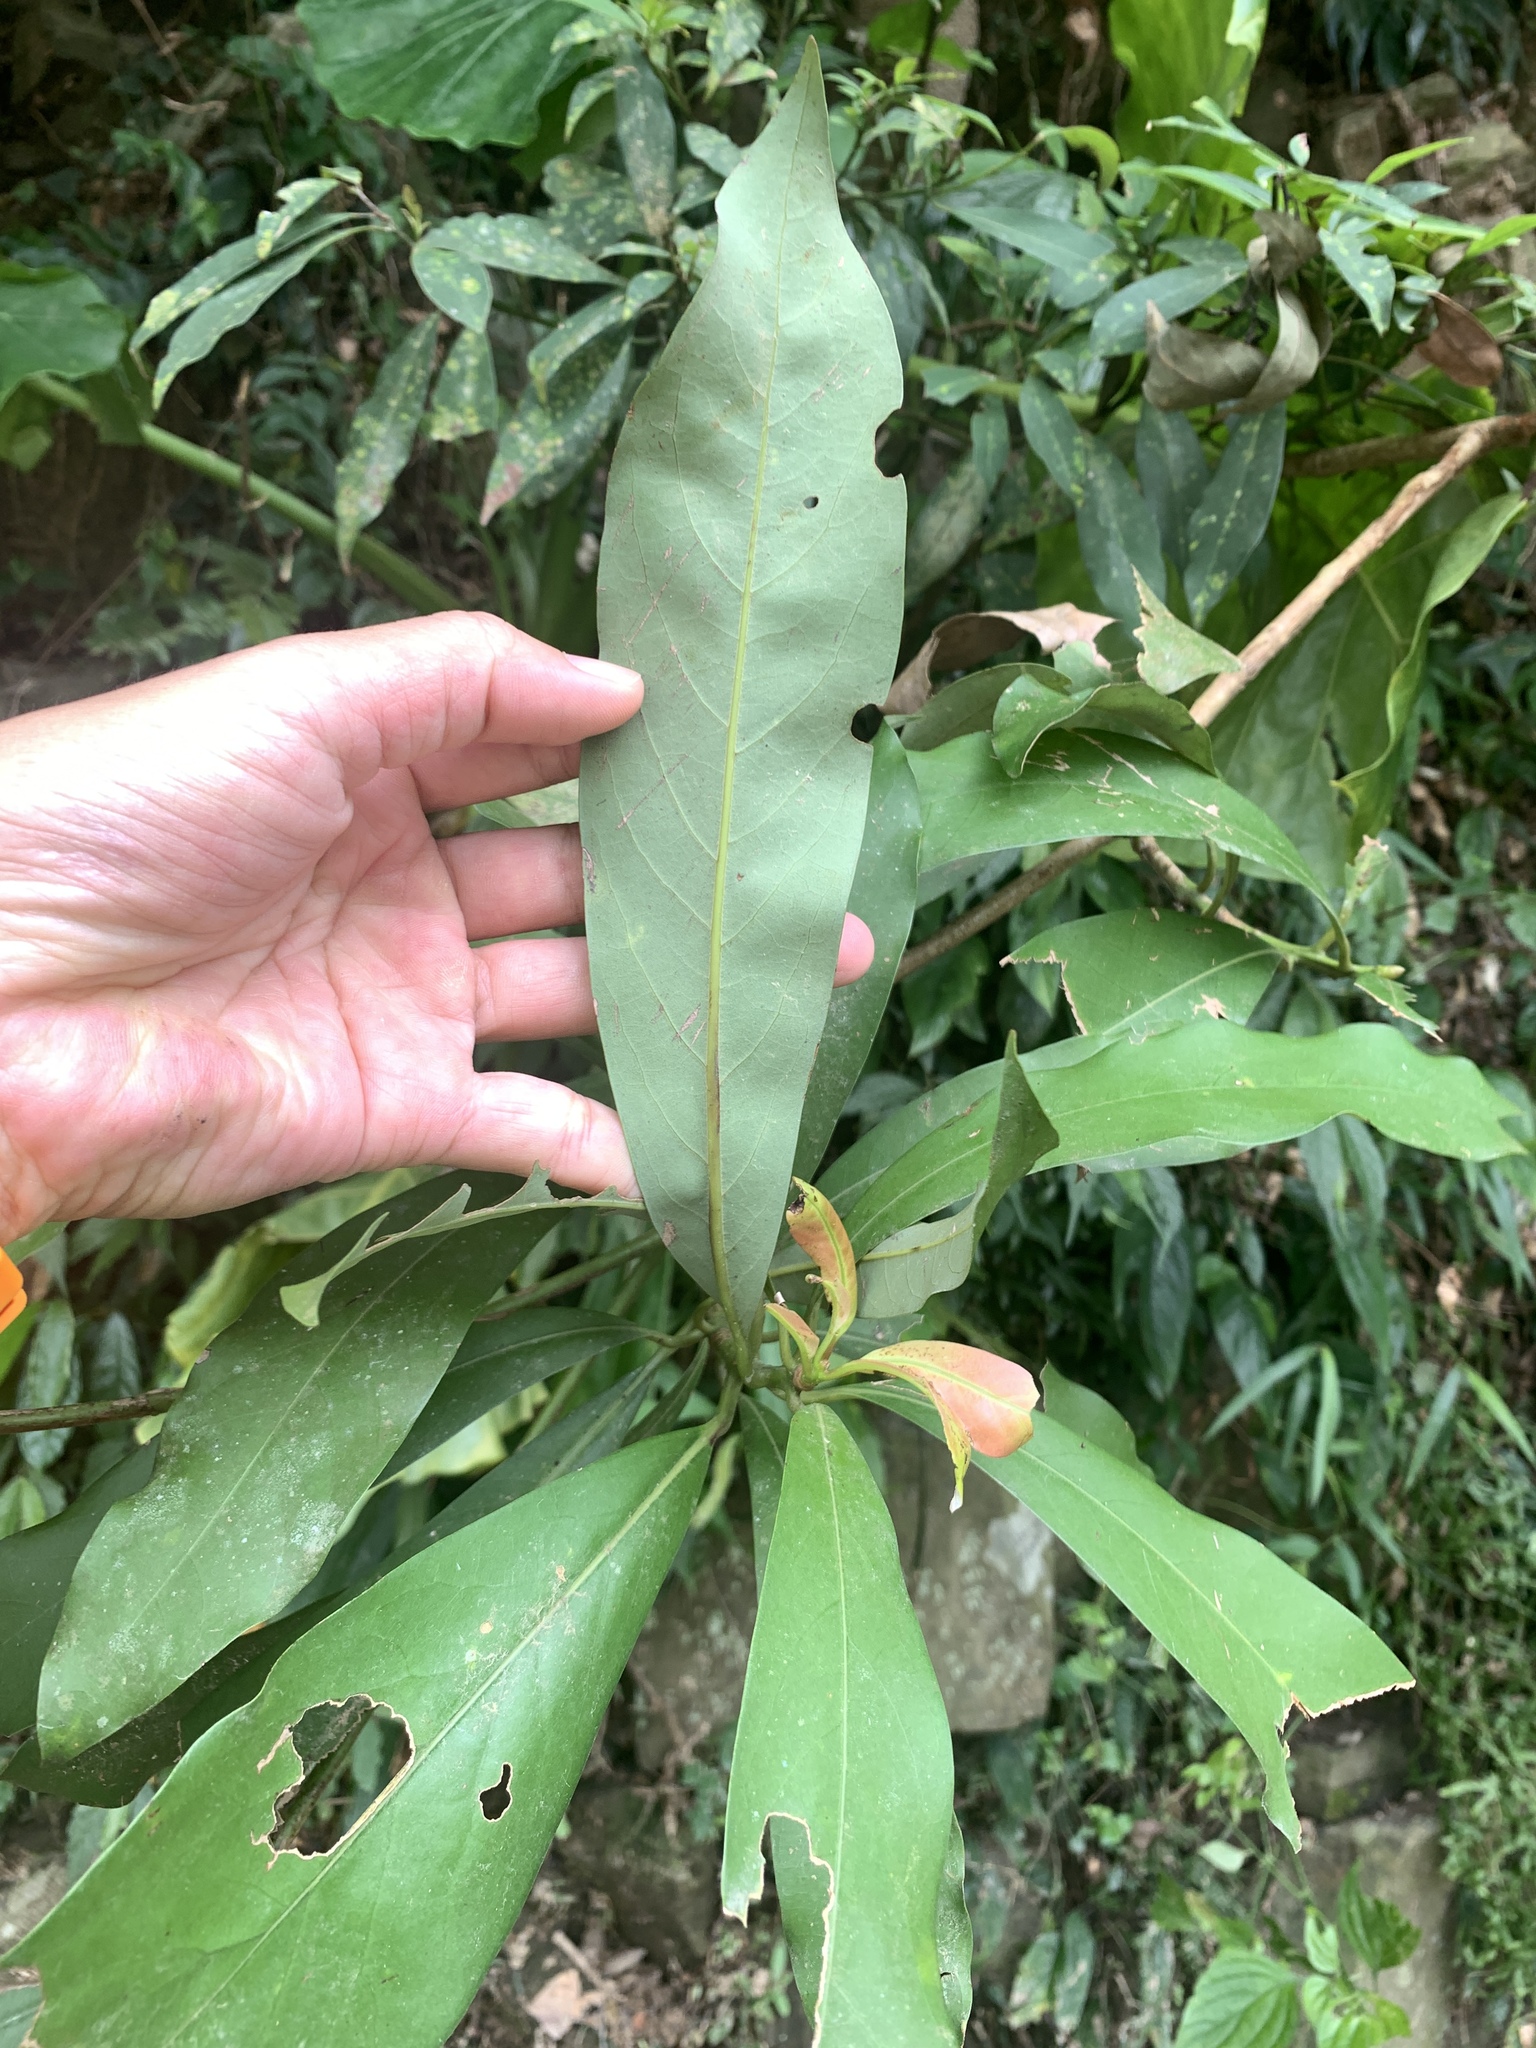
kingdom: Plantae
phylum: Tracheophyta
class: Magnoliopsida
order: Laurales
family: Lauraceae
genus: Machilus
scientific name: Machilus japonica
